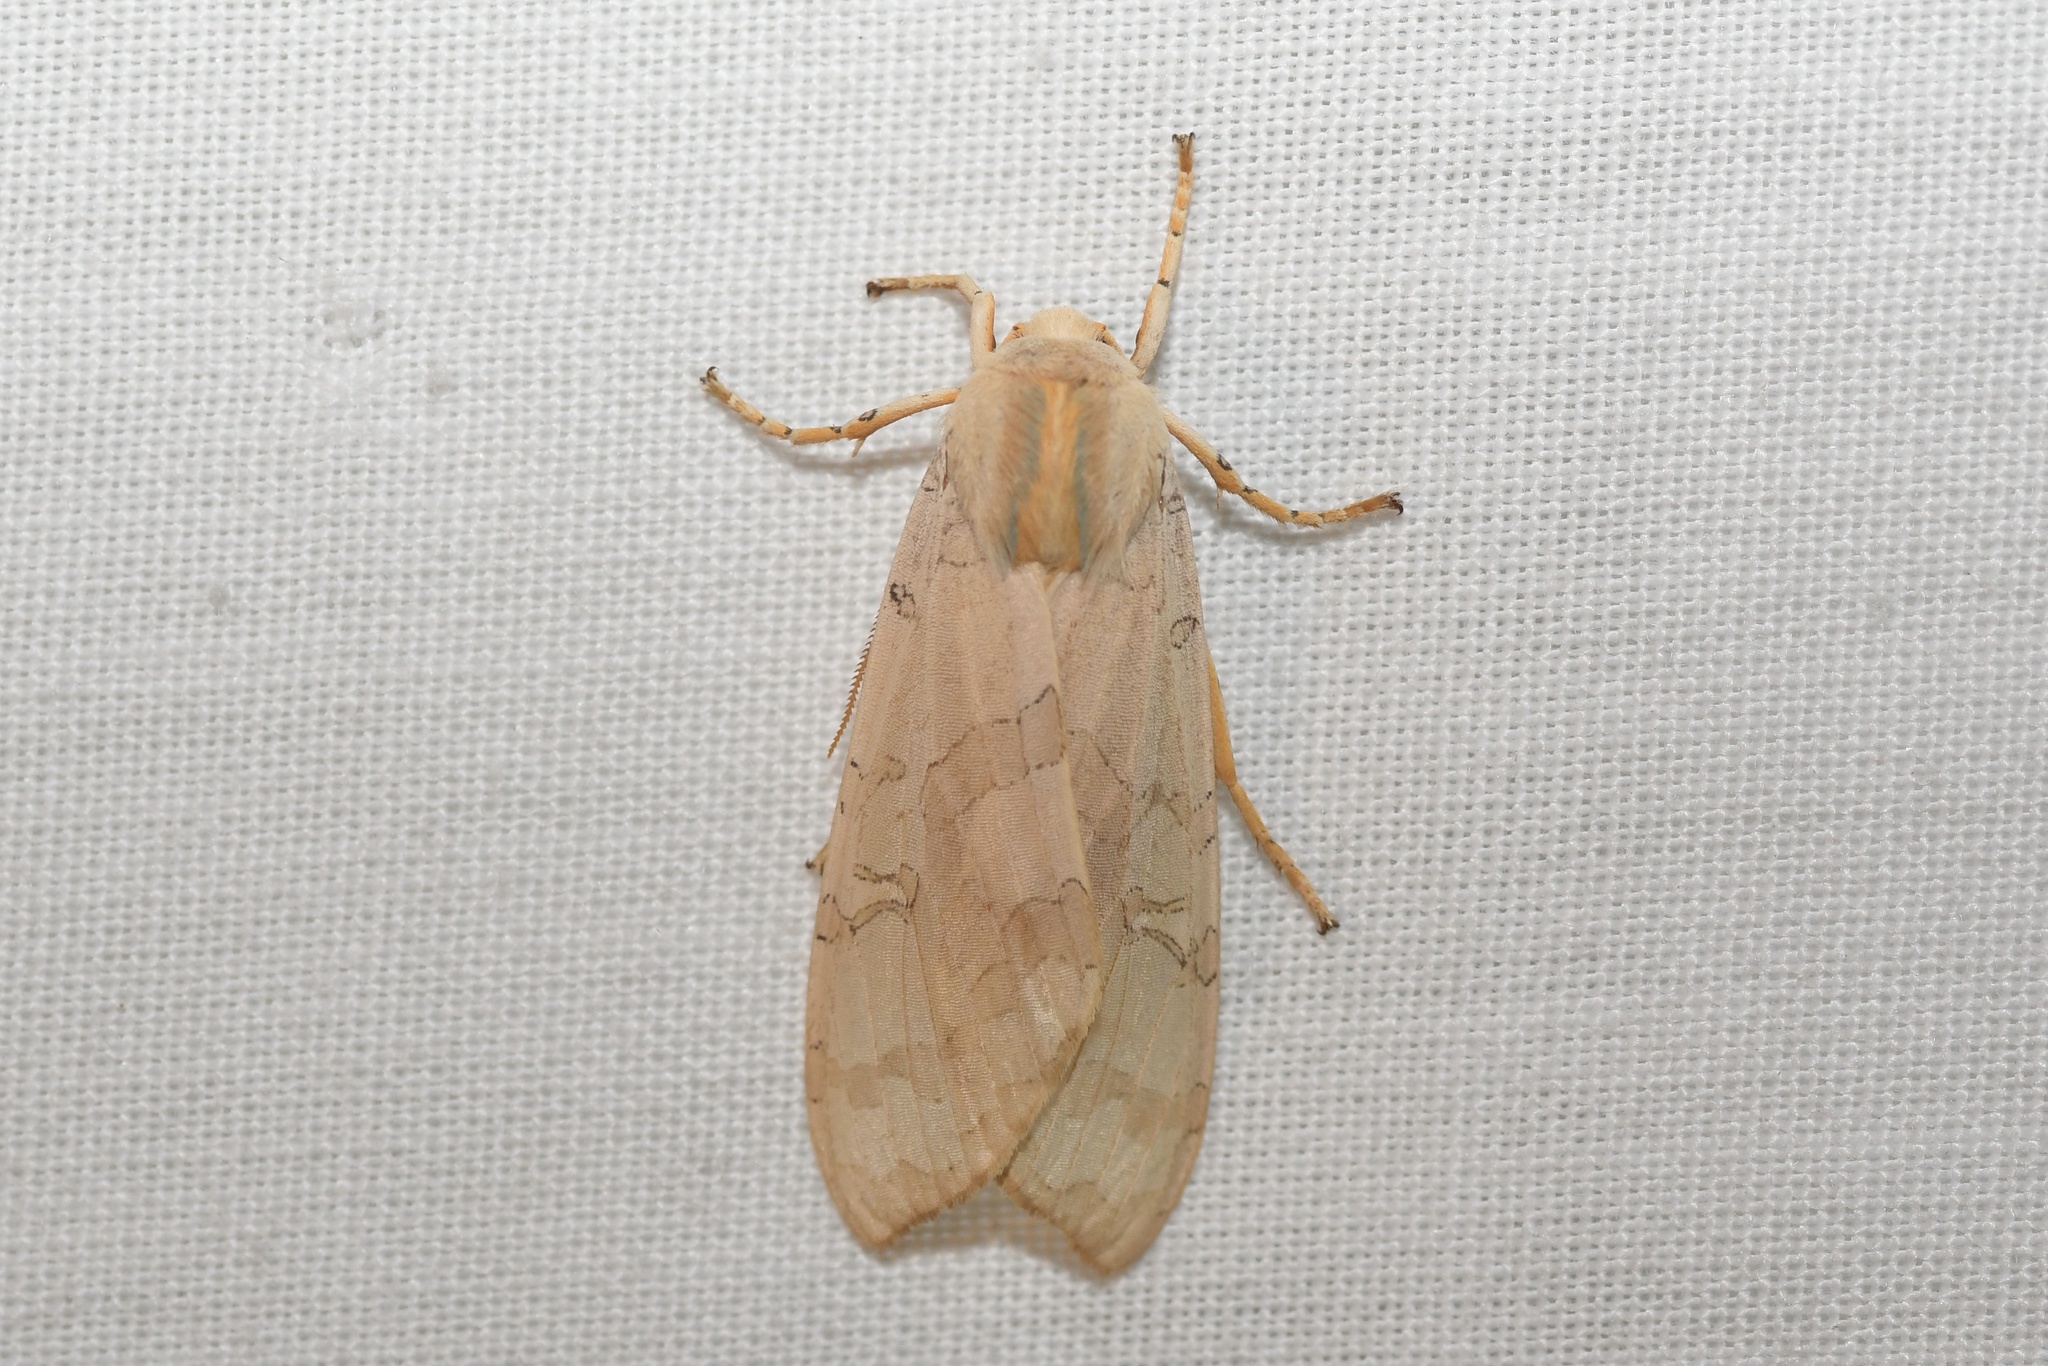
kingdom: Animalia
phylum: Arthropoda
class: Insecta
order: Lepidoptera
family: Erebidae
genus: Halysidota
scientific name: Halysidota tessellaris
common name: Banded tussock moth
